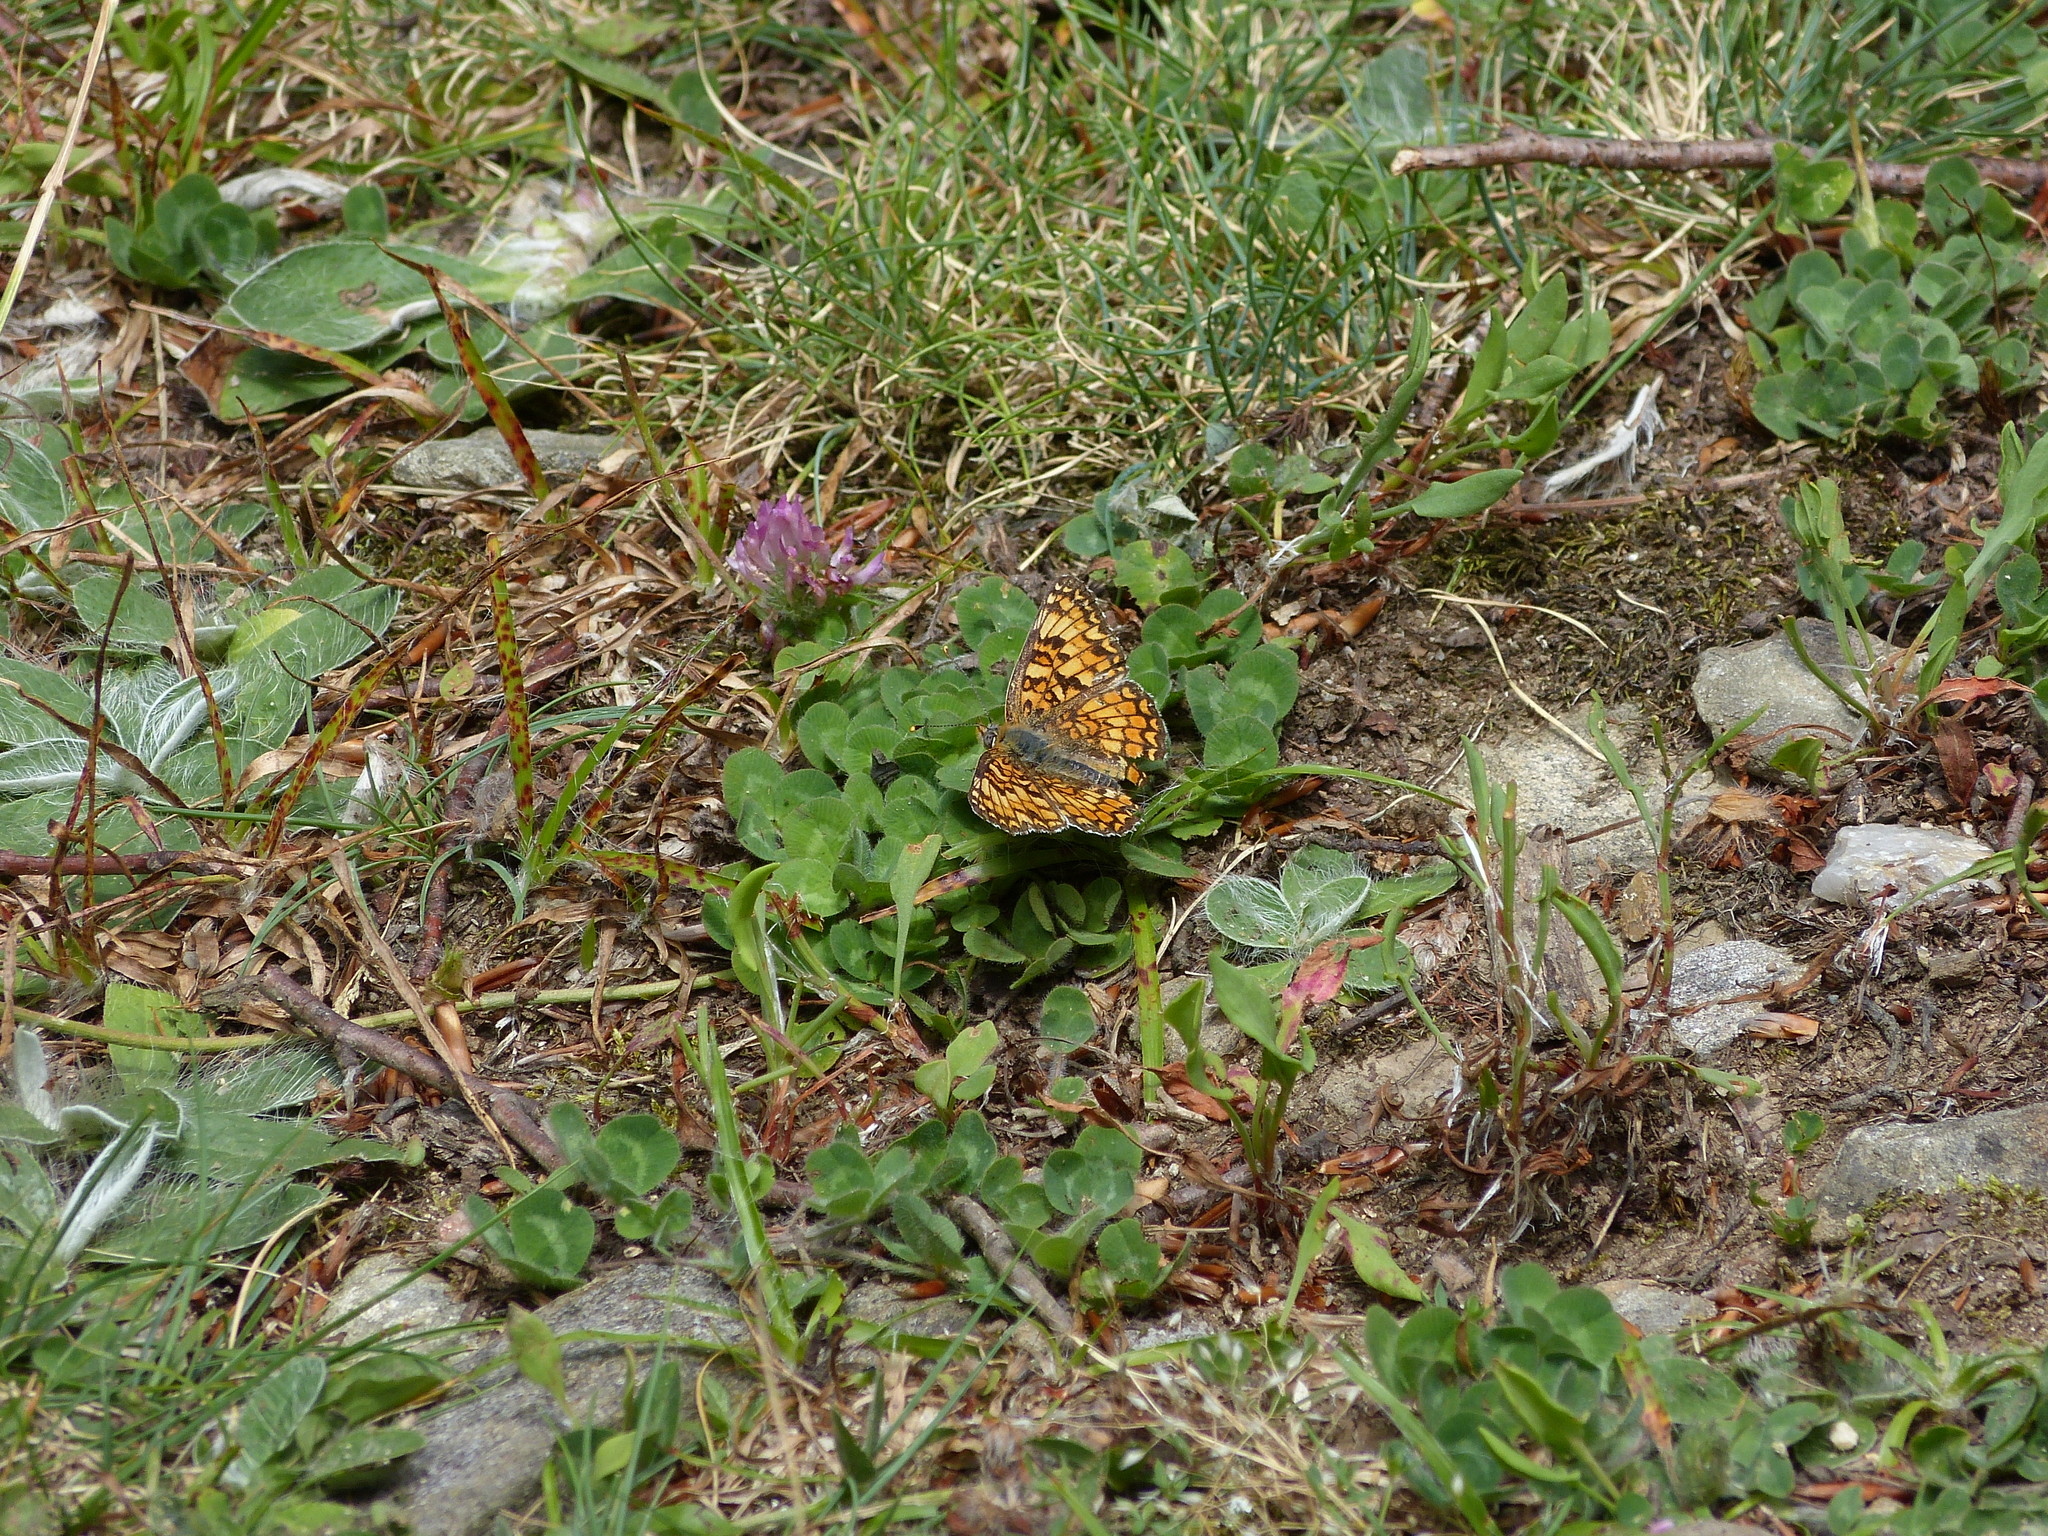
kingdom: Animalia
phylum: Arthropoda
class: Insecta
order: Lepidoptera
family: Nymphalidae
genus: Melitaea
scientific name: Melitaea phoebe
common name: Knapweed fritillary
